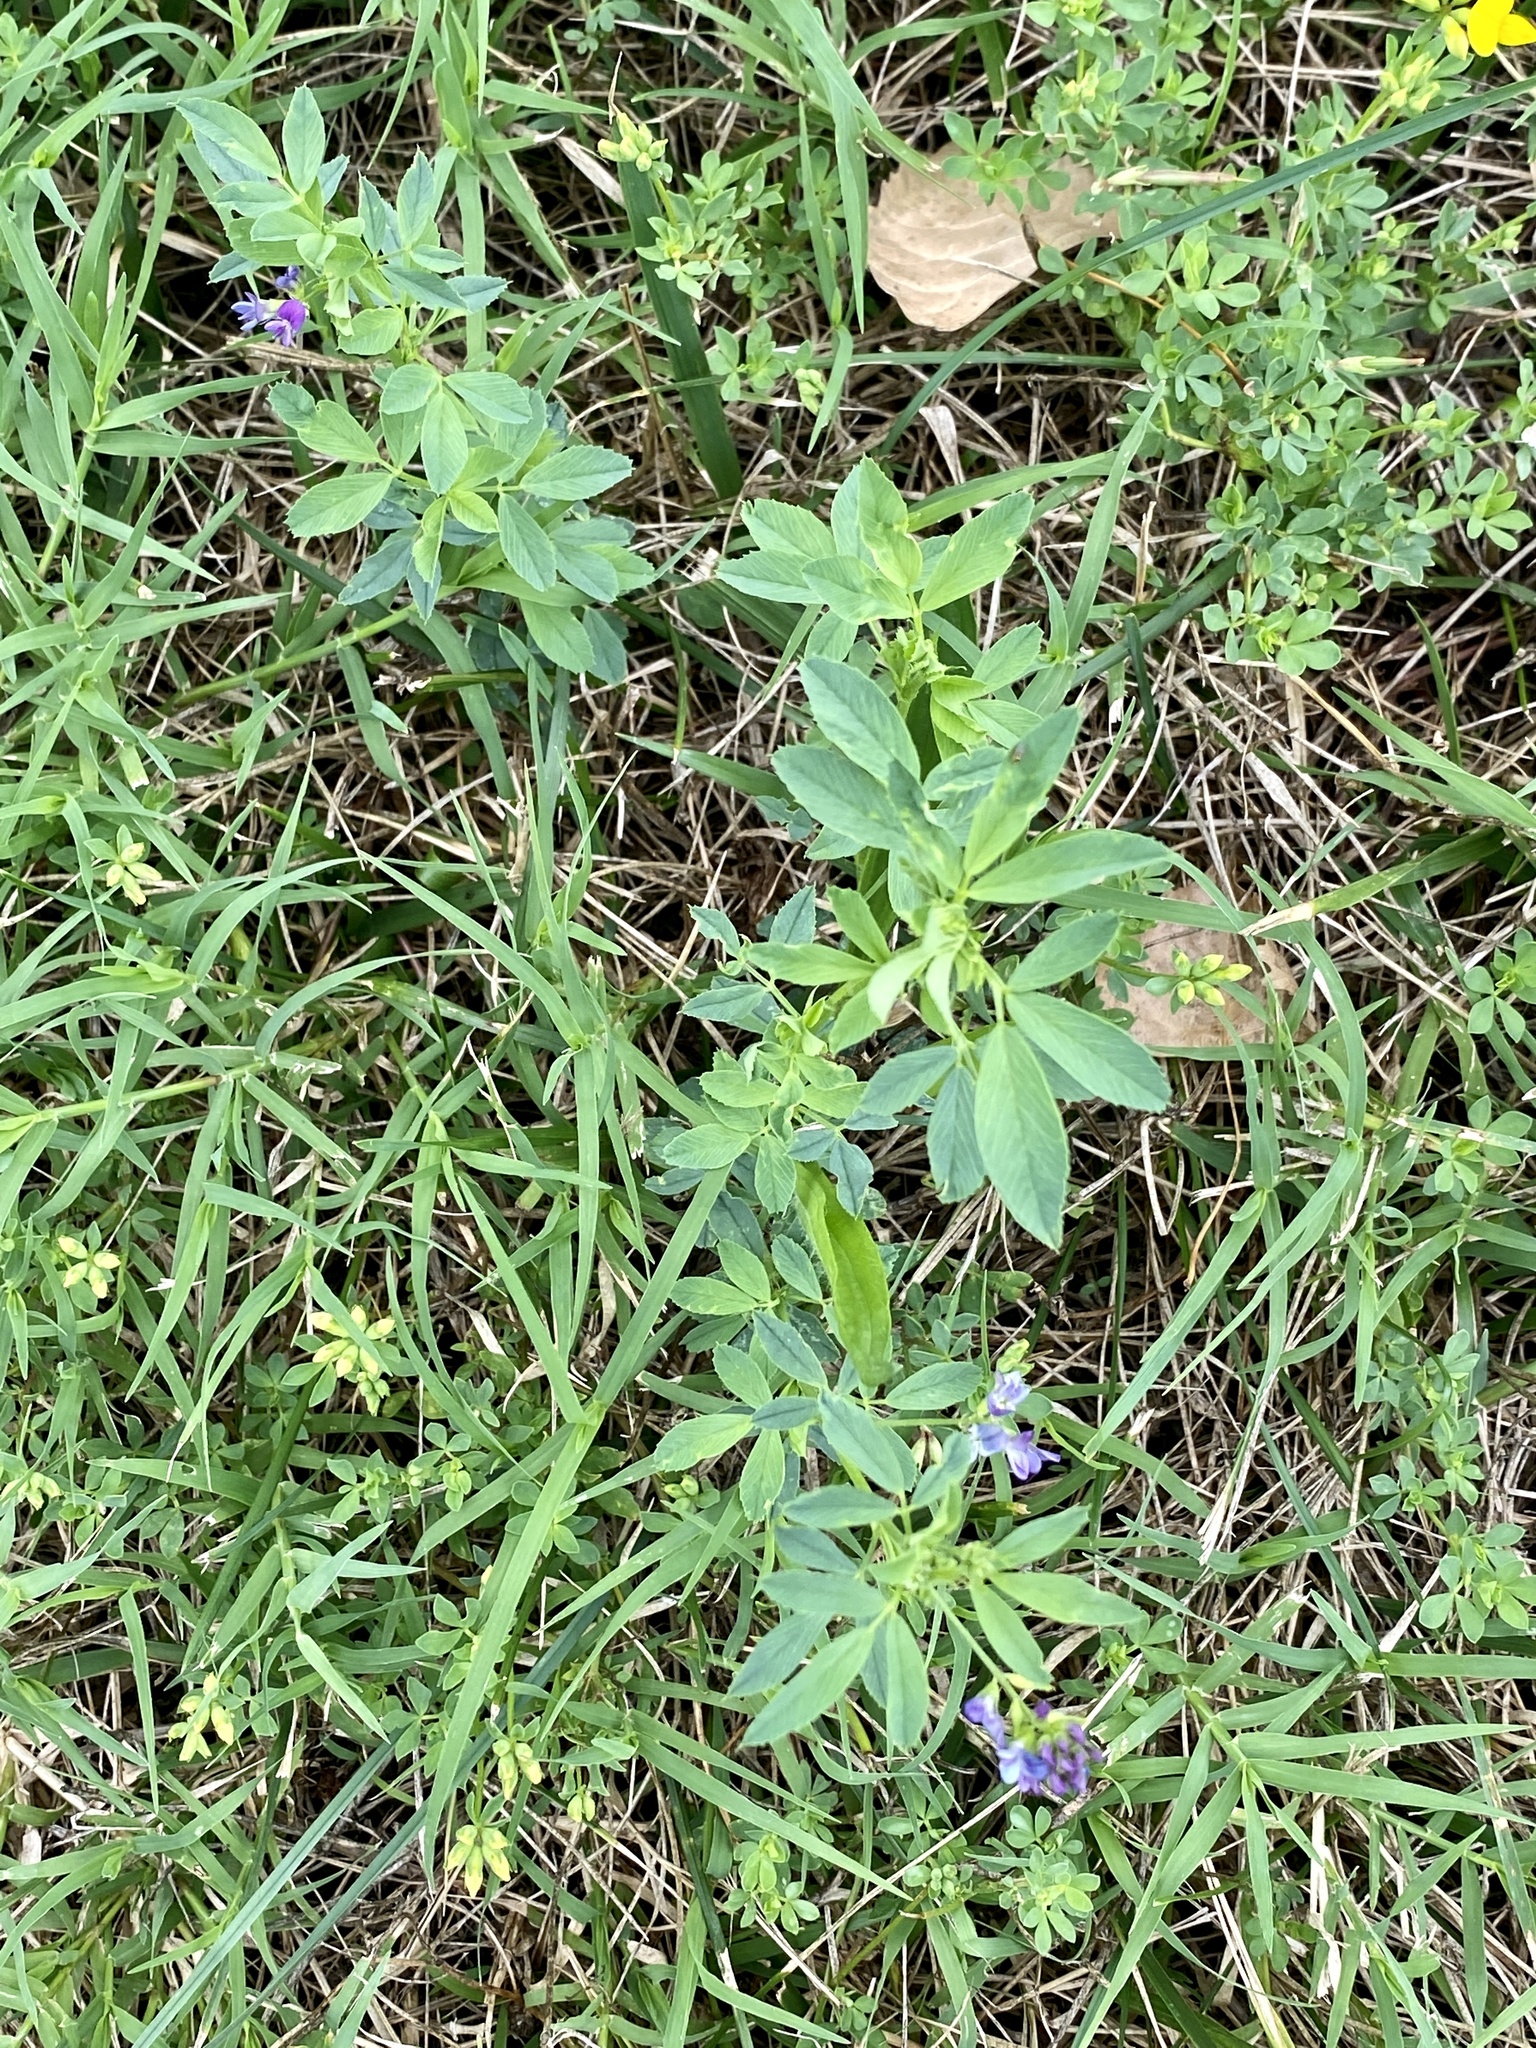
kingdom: Plantae
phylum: Tracheophyta
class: Magnoliopsida
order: Fabales
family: Fabaceae
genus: Medicago
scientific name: Medicago sativa
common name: Alfalfa
